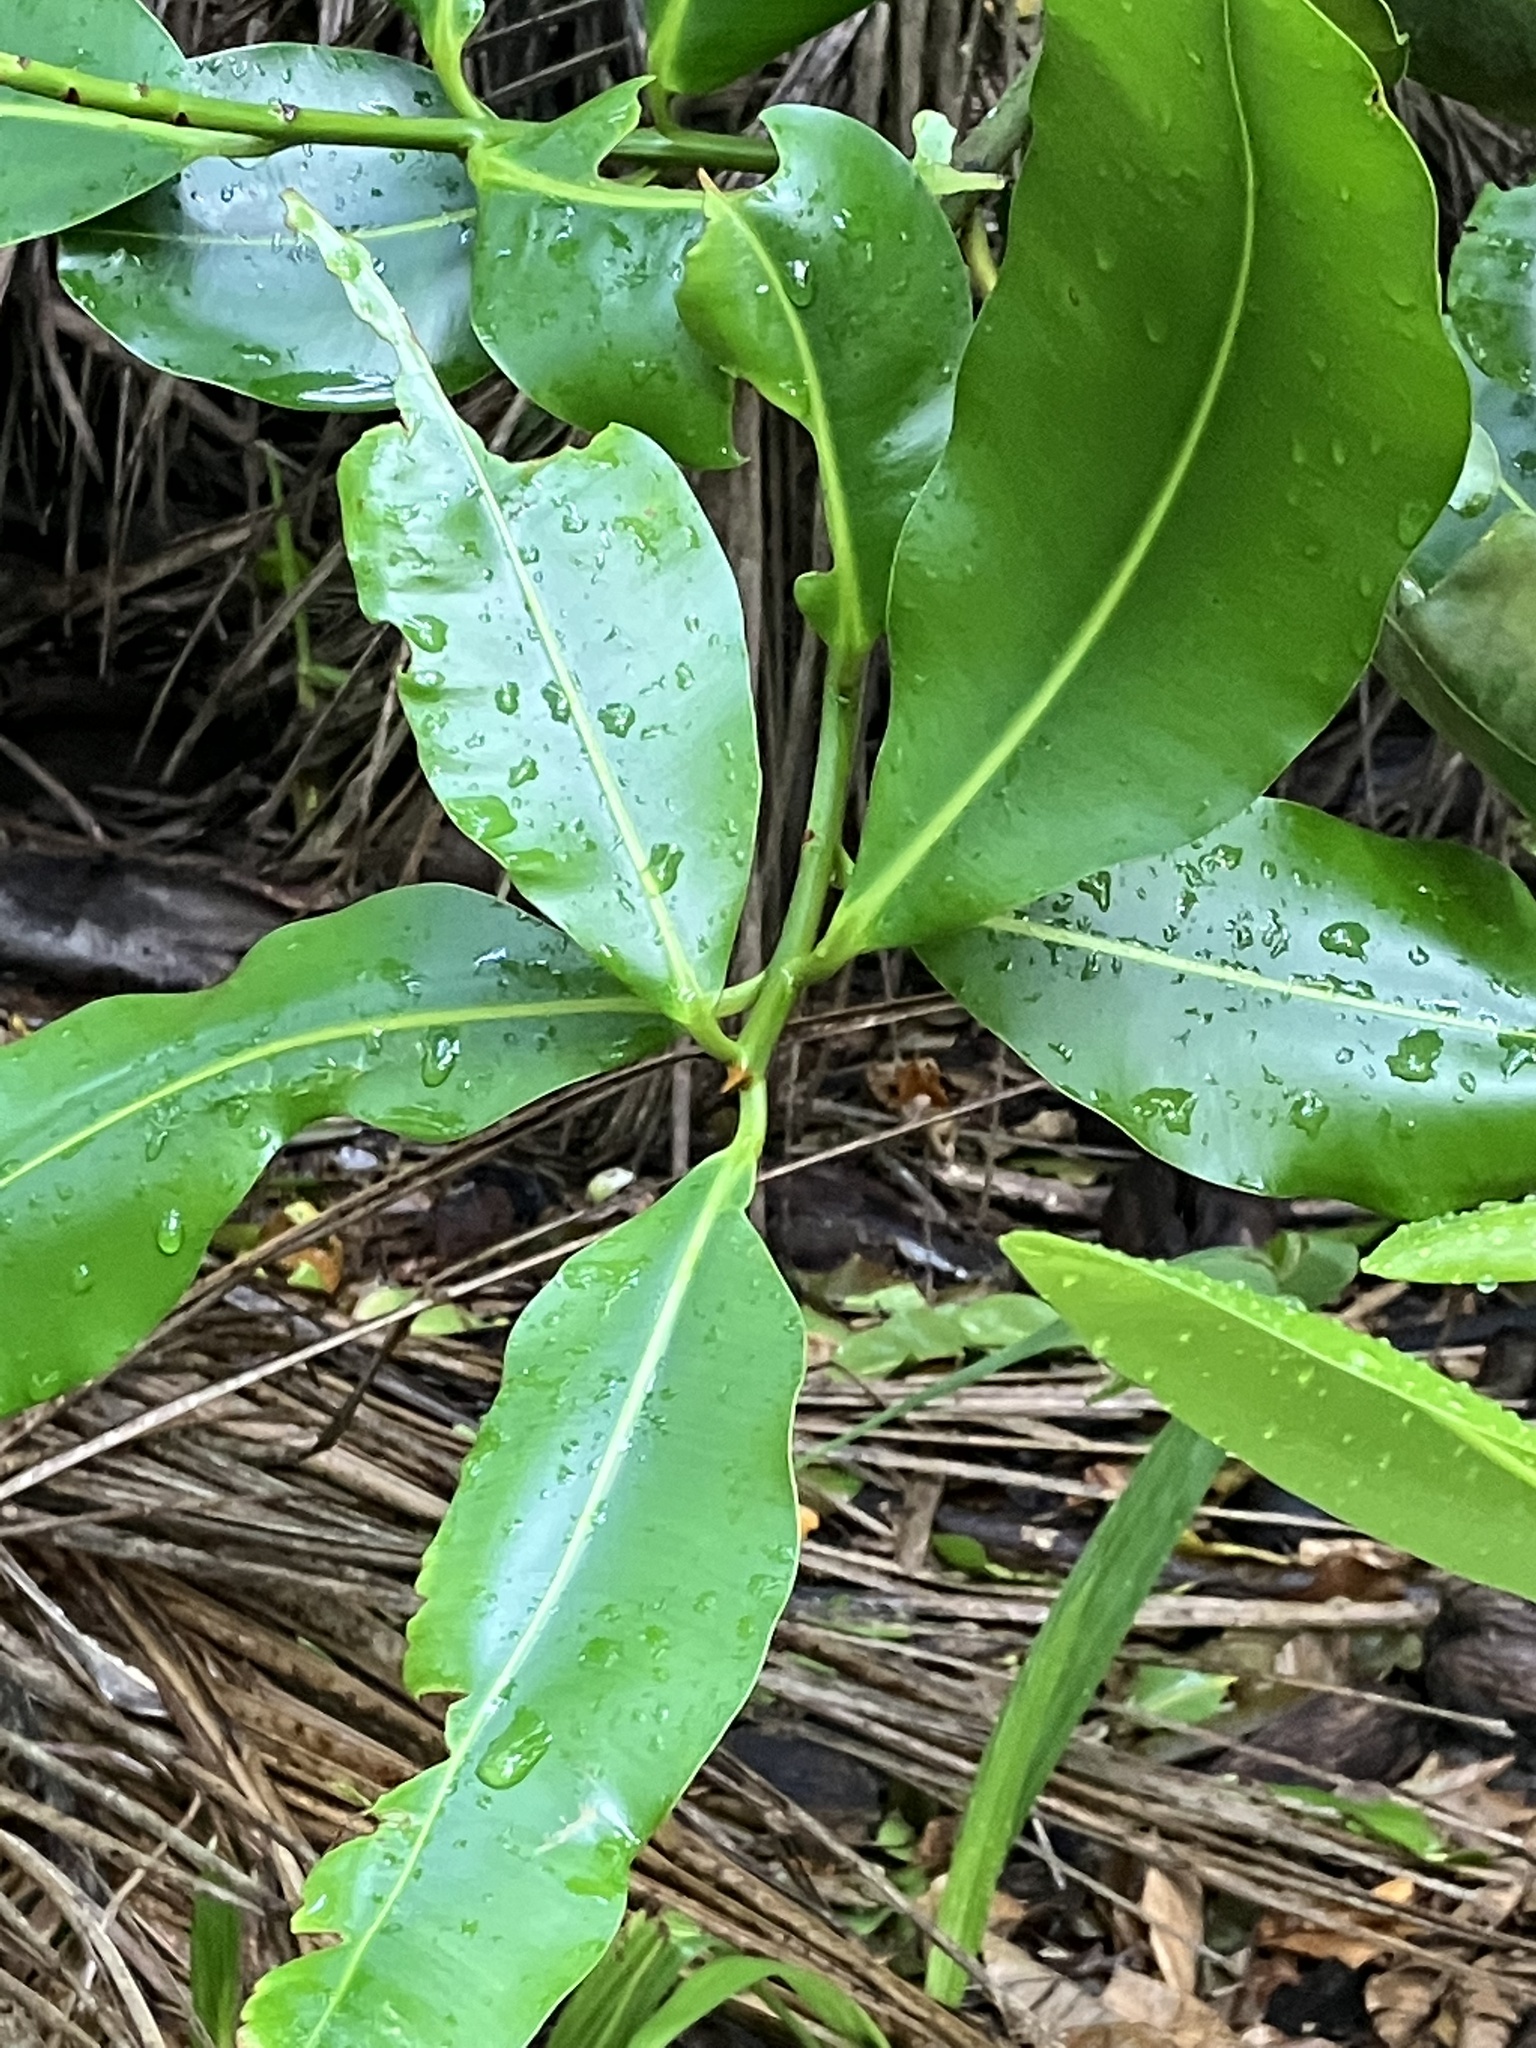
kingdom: Plantae
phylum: Tracheophyta
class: Magnoliopsida
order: Malpighiales
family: Calophyllaceae
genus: Calophyllum
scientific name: Calophyllum inophyllum
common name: Alexandrian laurel
